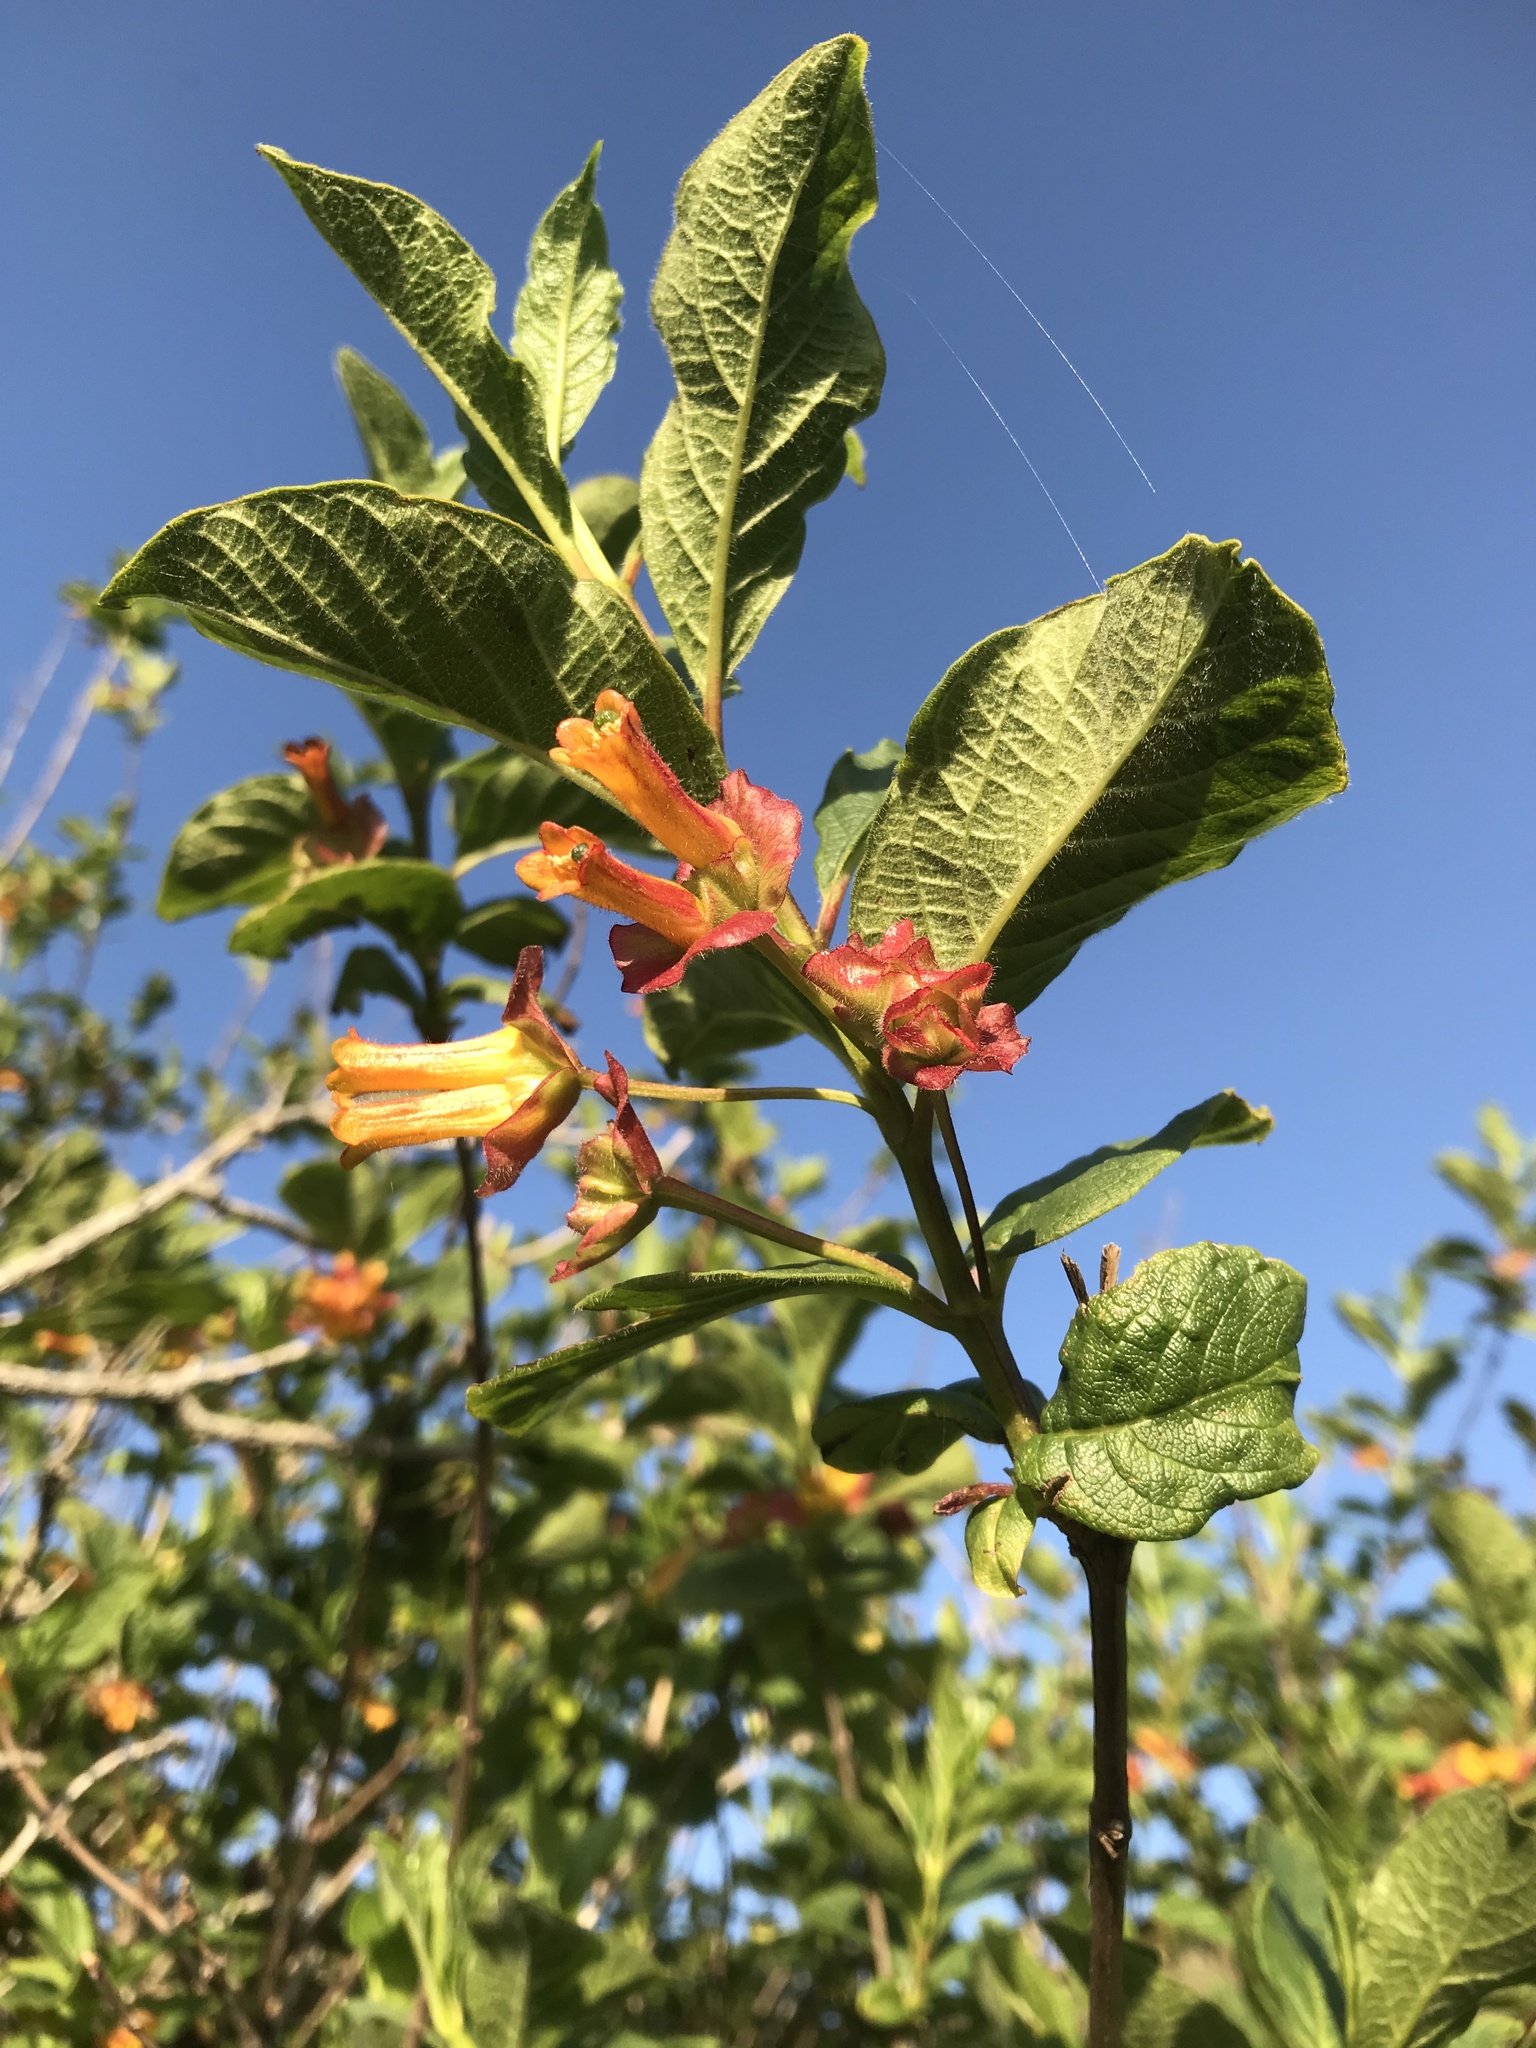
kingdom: Plantae
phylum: Tracheophyta
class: Magnoliopsida
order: Dipsacales
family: Caprifoliaceae
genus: Lonicera
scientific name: Lonicera involucrata
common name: Californian honeysuckle
